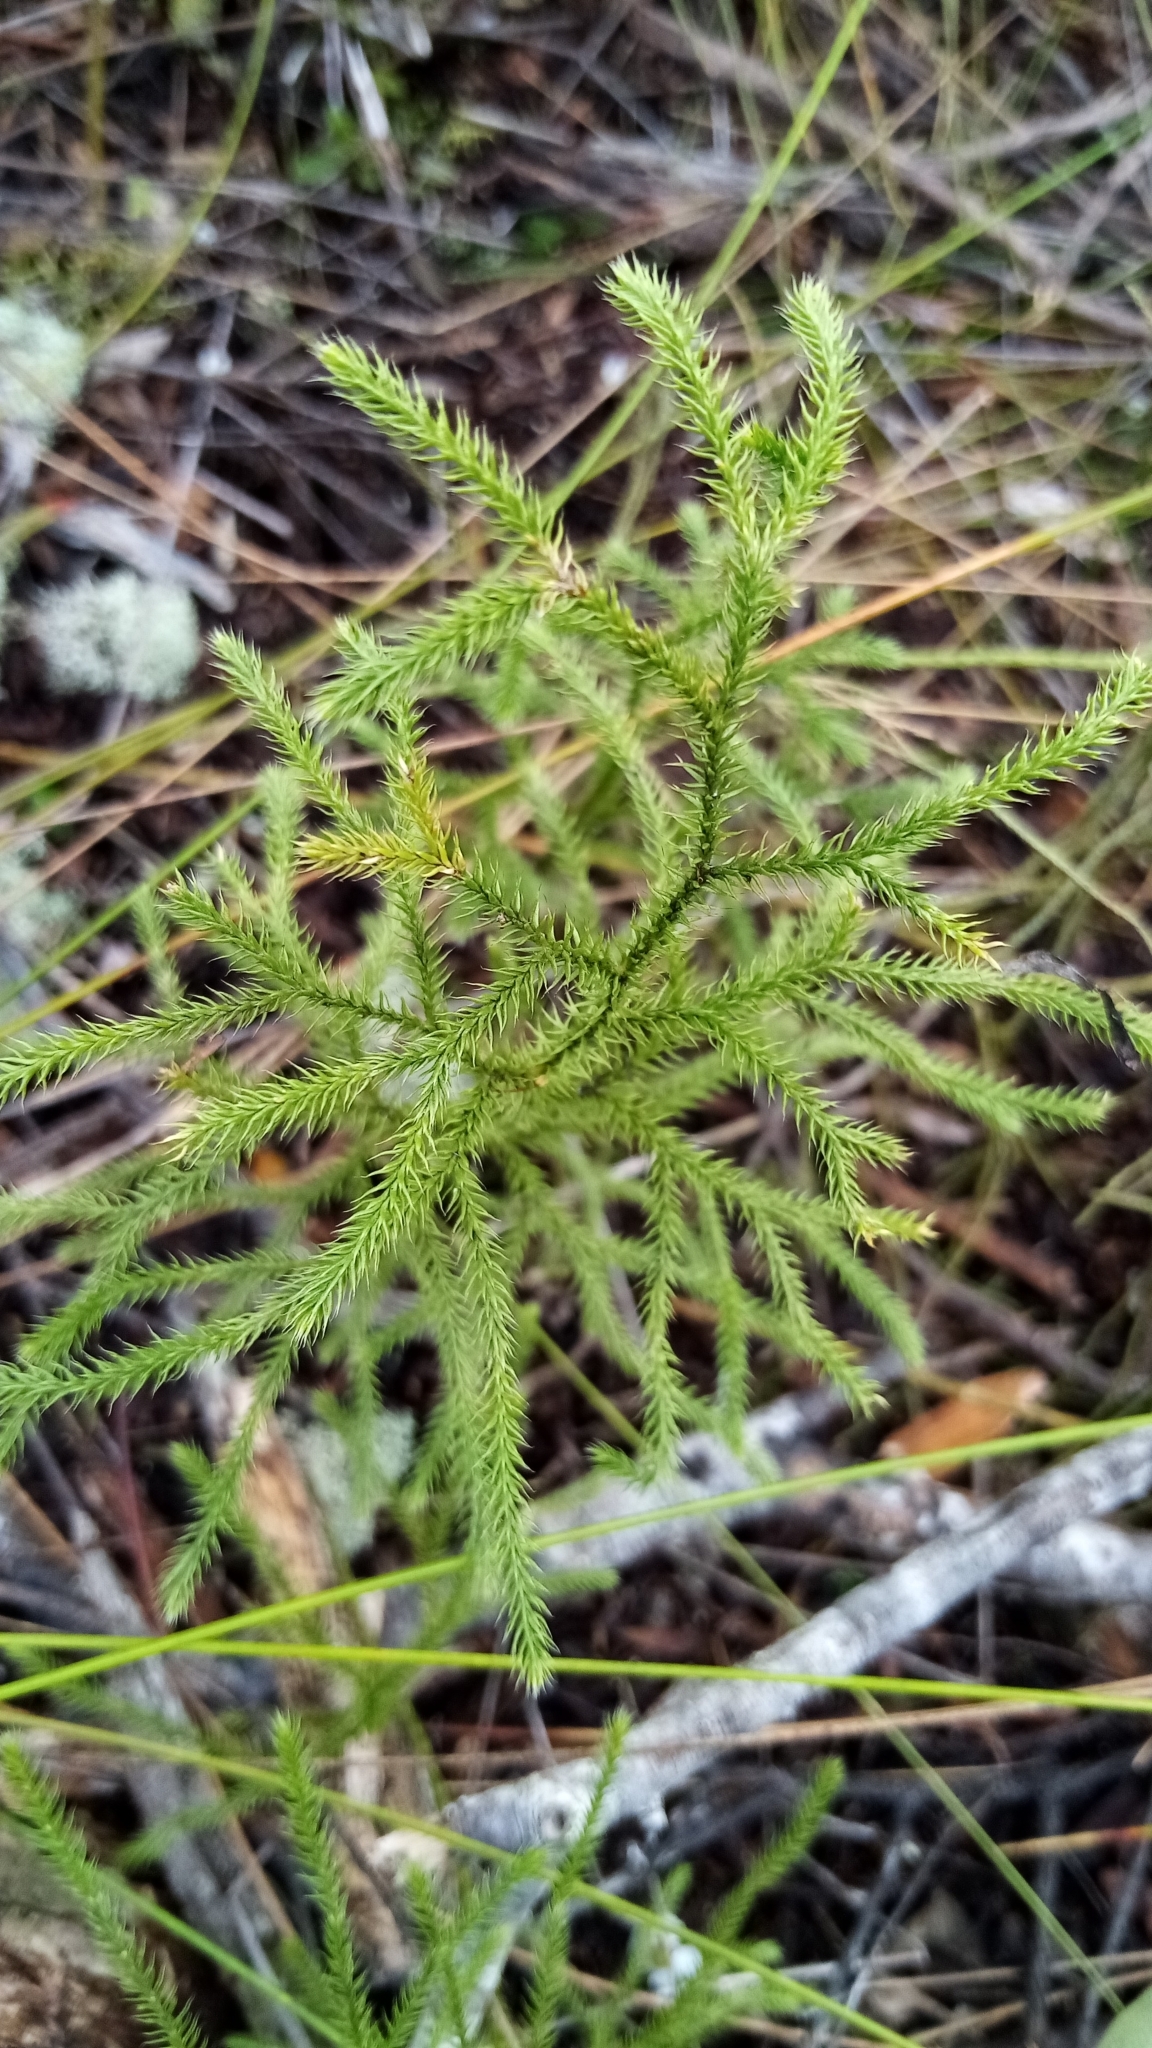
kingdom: Plantae
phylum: Tracheophyta
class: Pinopsida
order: Pinales
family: Podocarpaceae
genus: Dacrydium
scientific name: Dacrydium cupressinum
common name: Red pine
